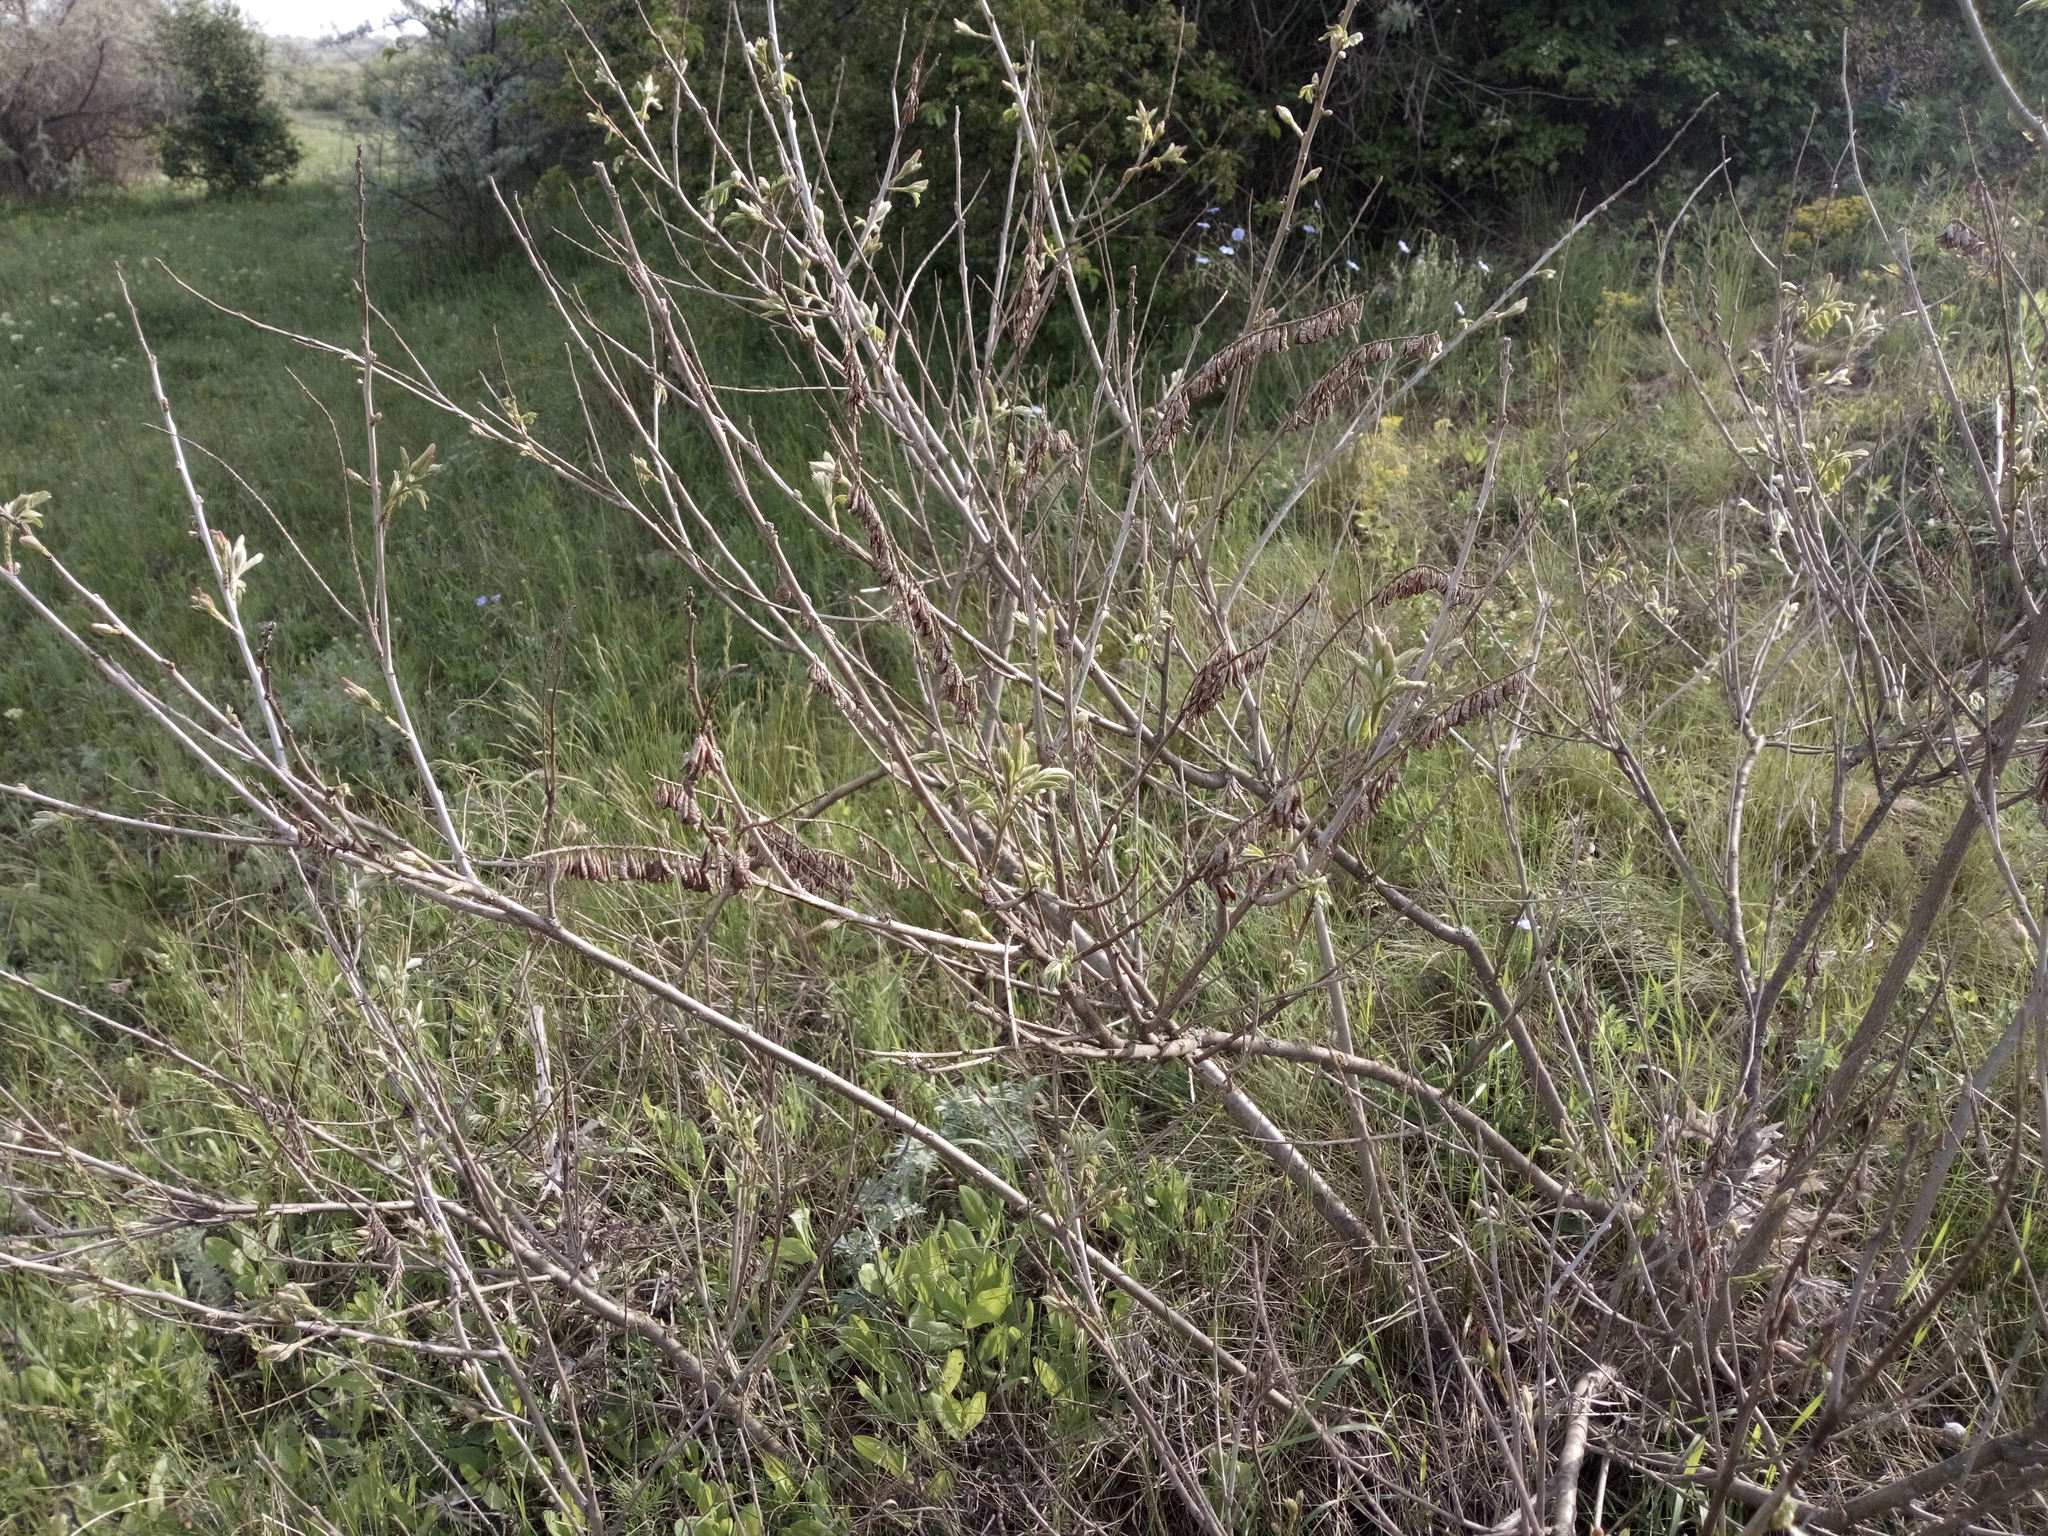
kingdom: Plantae
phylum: Tracheophyta
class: Magnoliopsida
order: Fabales
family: Fabaceae
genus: Amorpha
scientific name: Amorpha fruticosa
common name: False indigo
